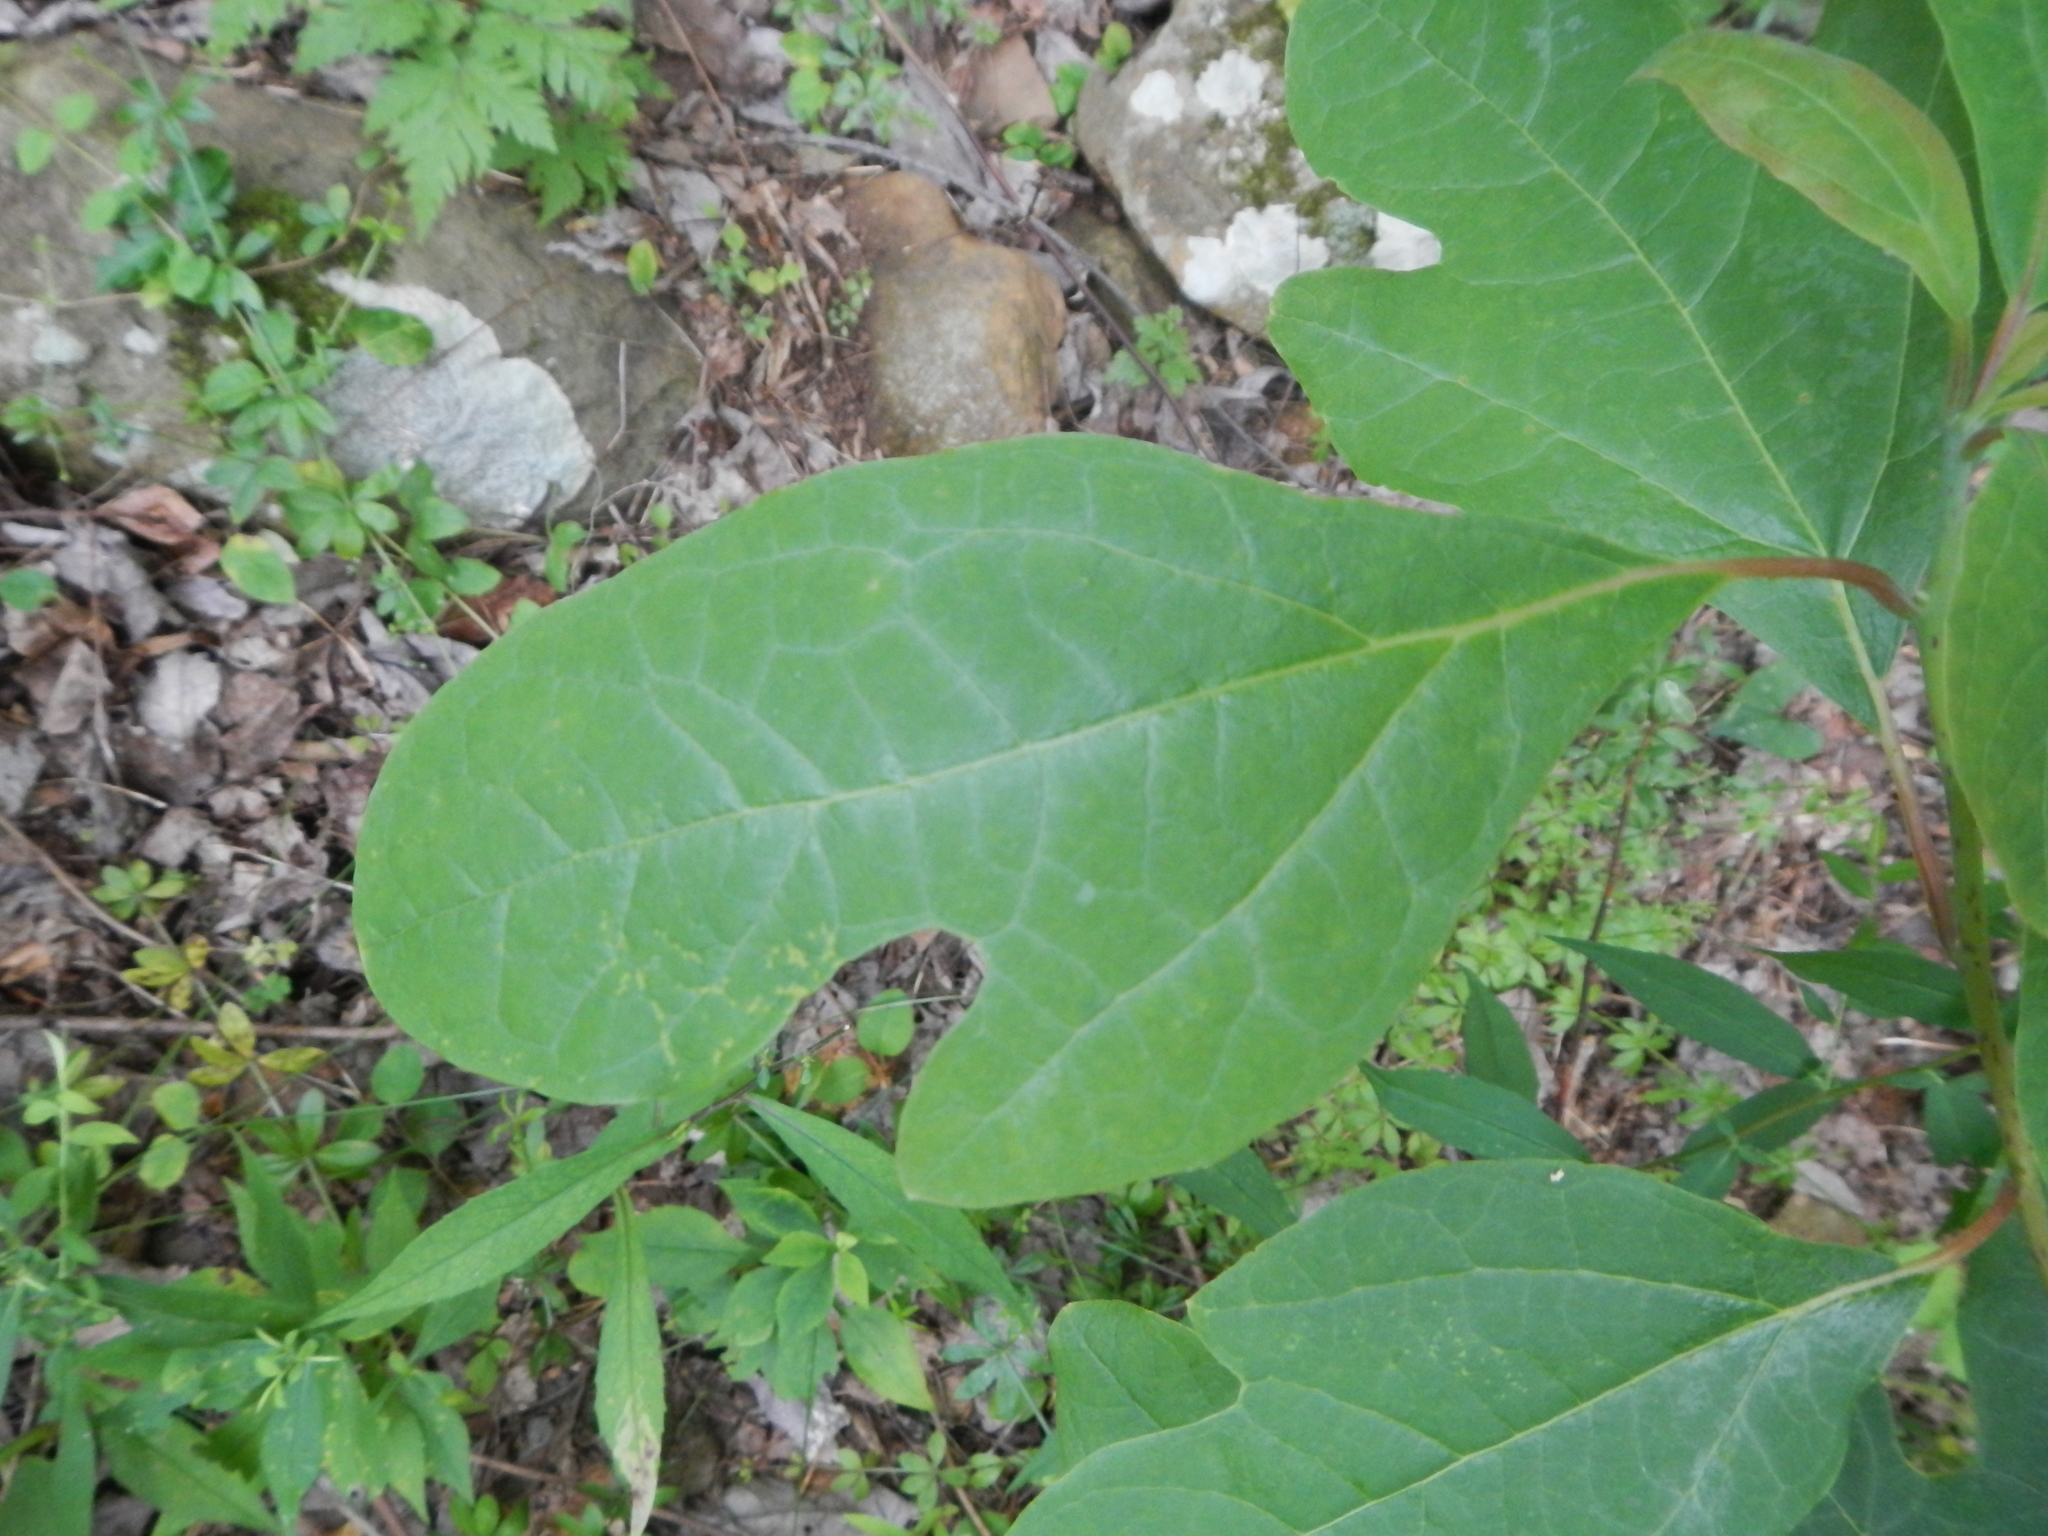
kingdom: Plantae
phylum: Tracheophyta
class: Magnoliopsida
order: Laurales
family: Lauraceae
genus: Sassafras
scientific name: Sassafras albidum
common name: Sassafras
